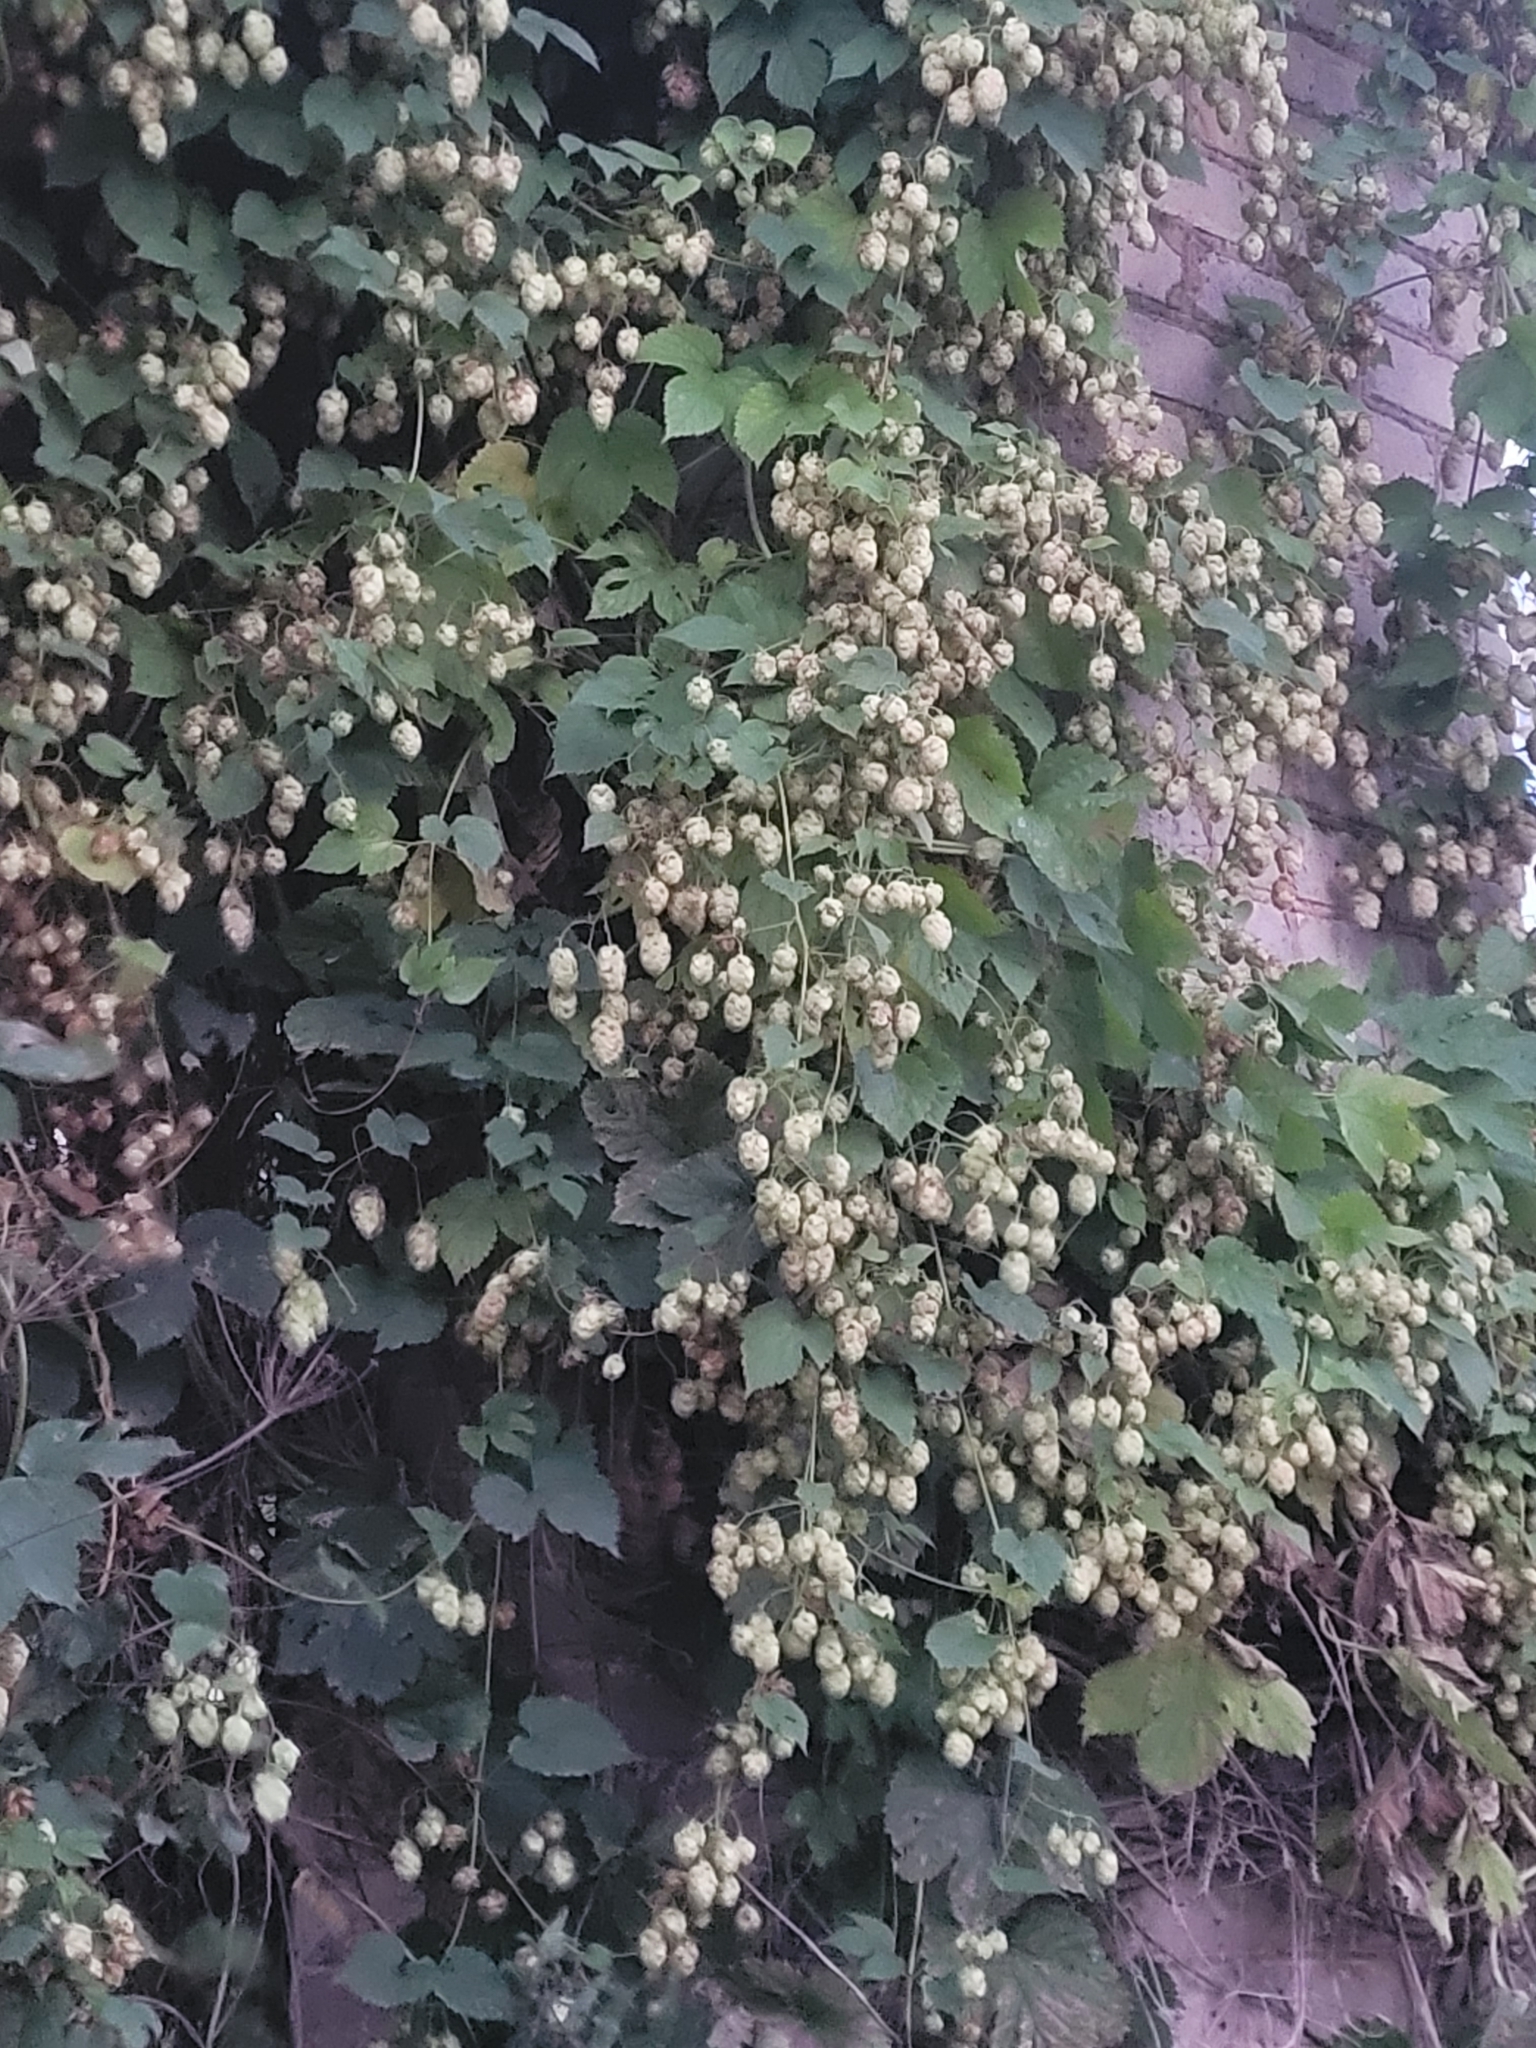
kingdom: Plantae
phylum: Tracheophyta
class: Magnoliopsida
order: Rosales
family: Cannabaceae
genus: Humulus
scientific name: Humulus lupulus
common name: Hop
